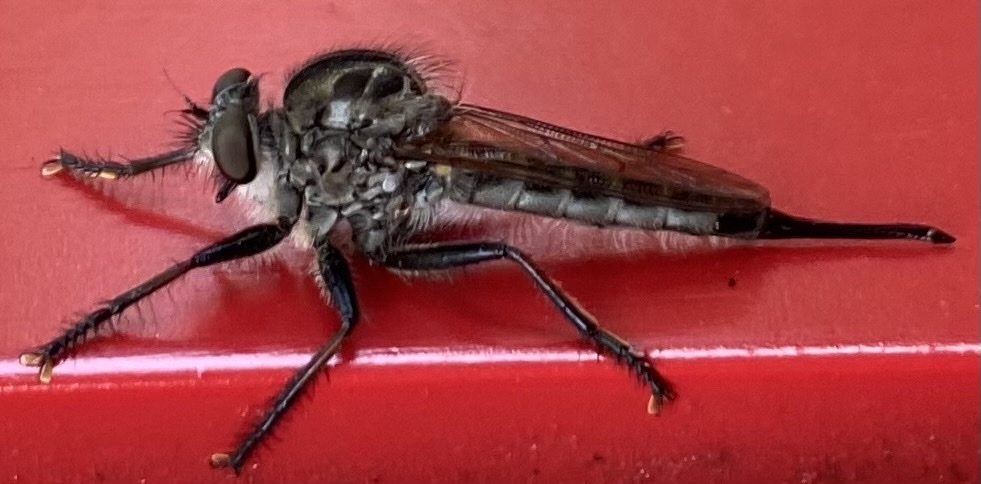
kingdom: Animalia
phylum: Arthropoda
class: Insecta
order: Diptera
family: Asilidae
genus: Efferia
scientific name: Efferia aestuans
